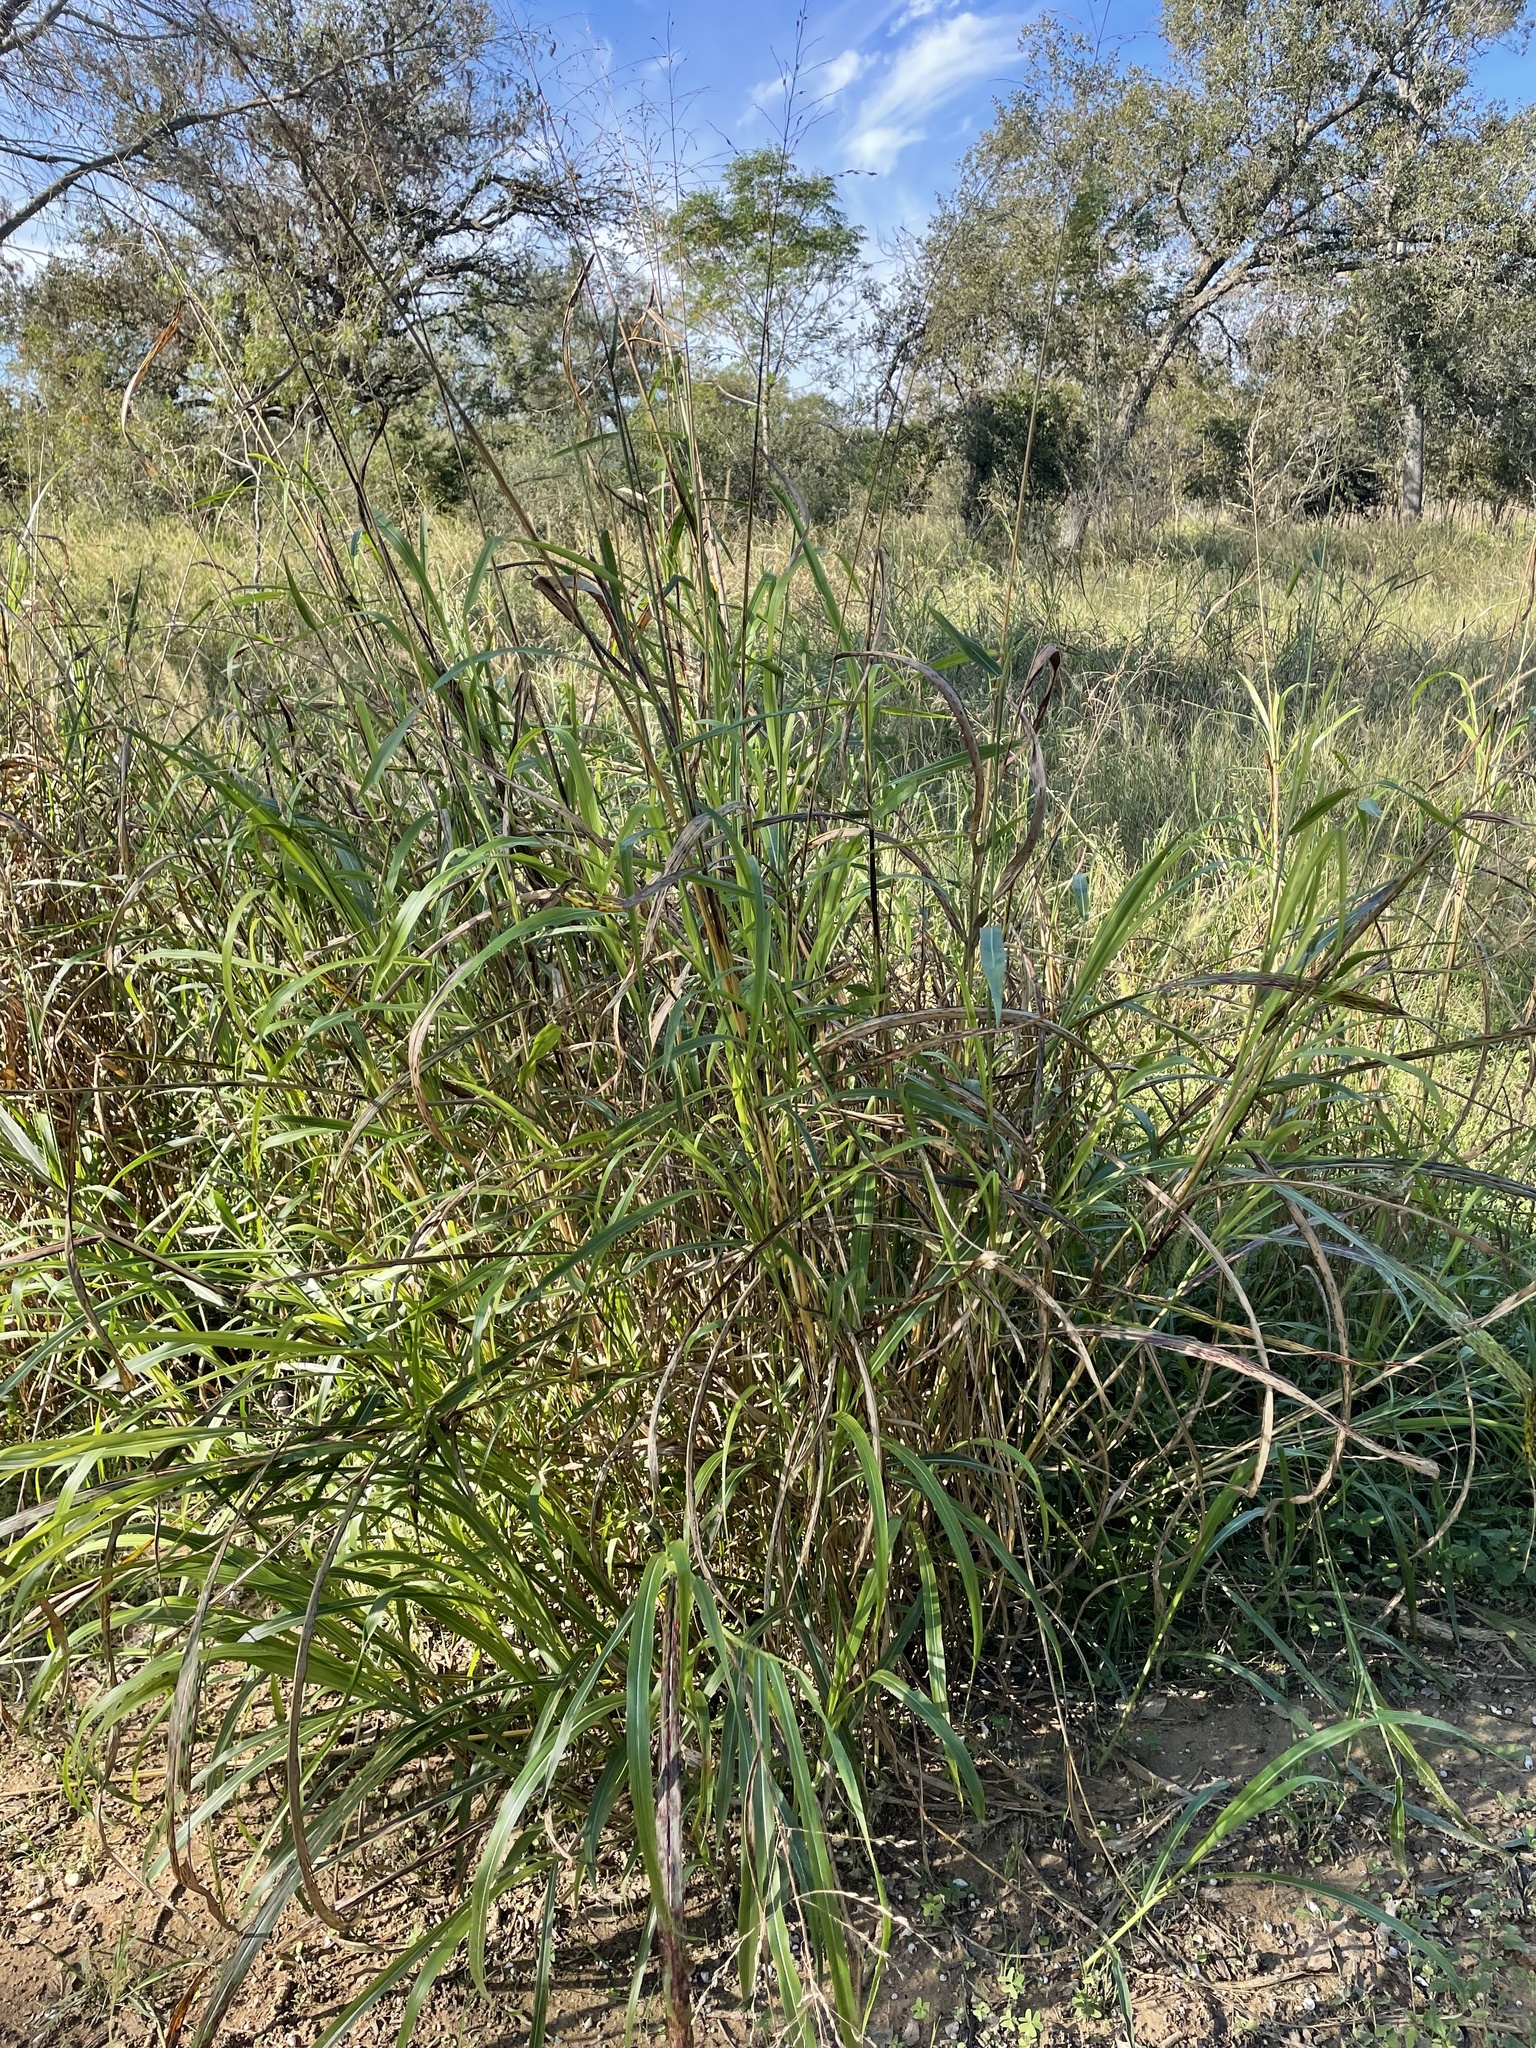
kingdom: Plantae
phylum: Tracheophyta
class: Liliopsida
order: Poales
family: Poaceae
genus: Sorghum
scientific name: Sorghum halepense
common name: Johnson-grass
